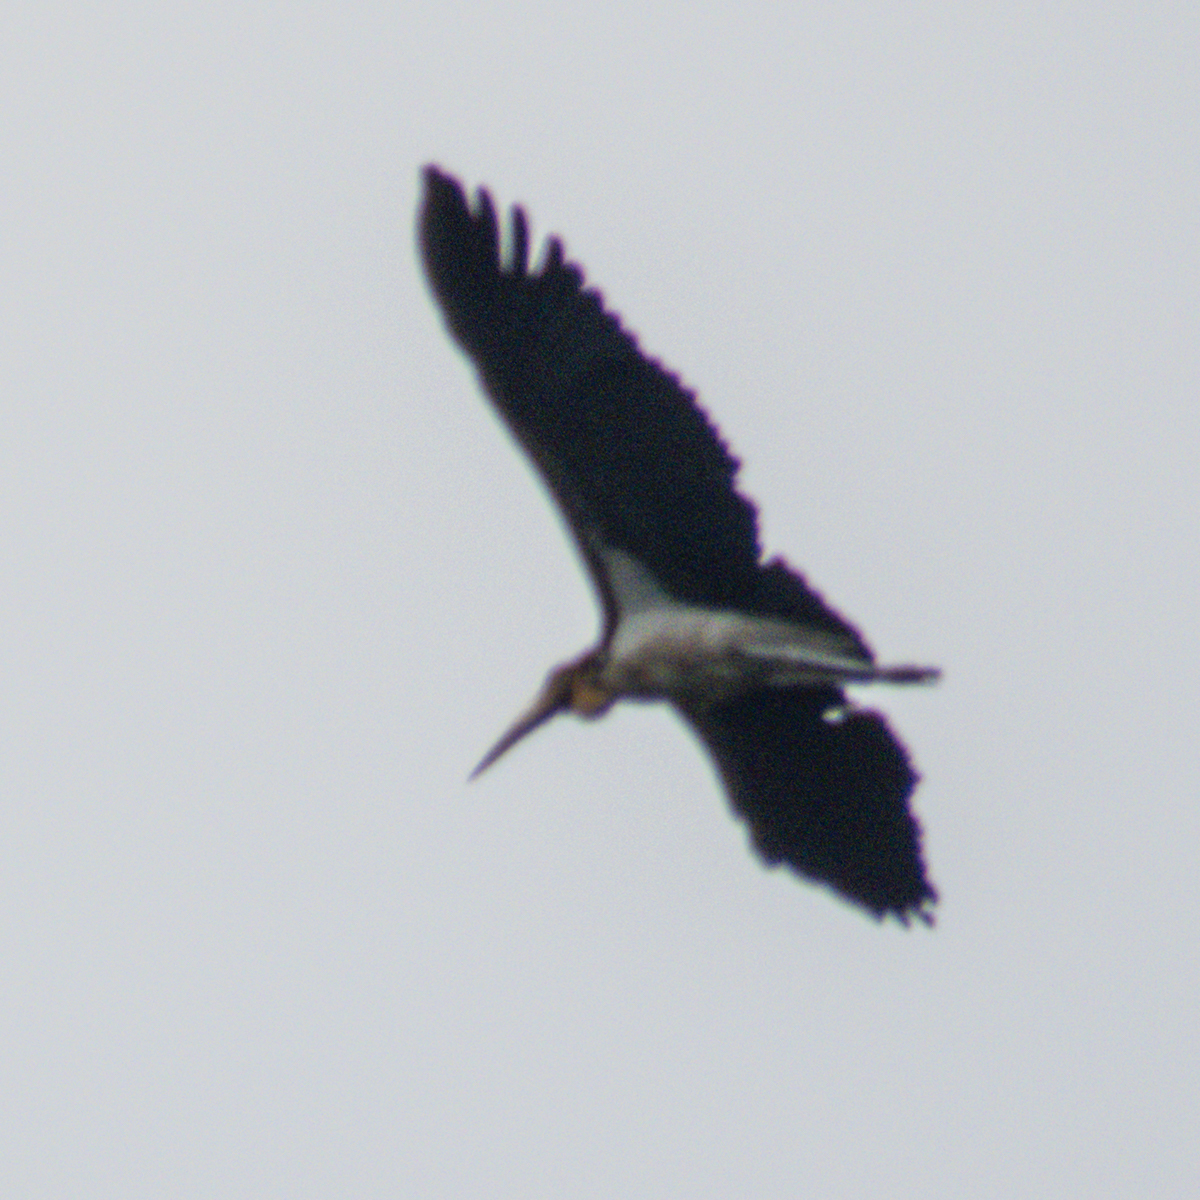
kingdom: Animalia
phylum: Chordata
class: Aves
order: Ciconiiformes
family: Ciconiidae
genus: Leptoptilos
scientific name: Leptoptilos javanicus
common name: Lesser adjutant
